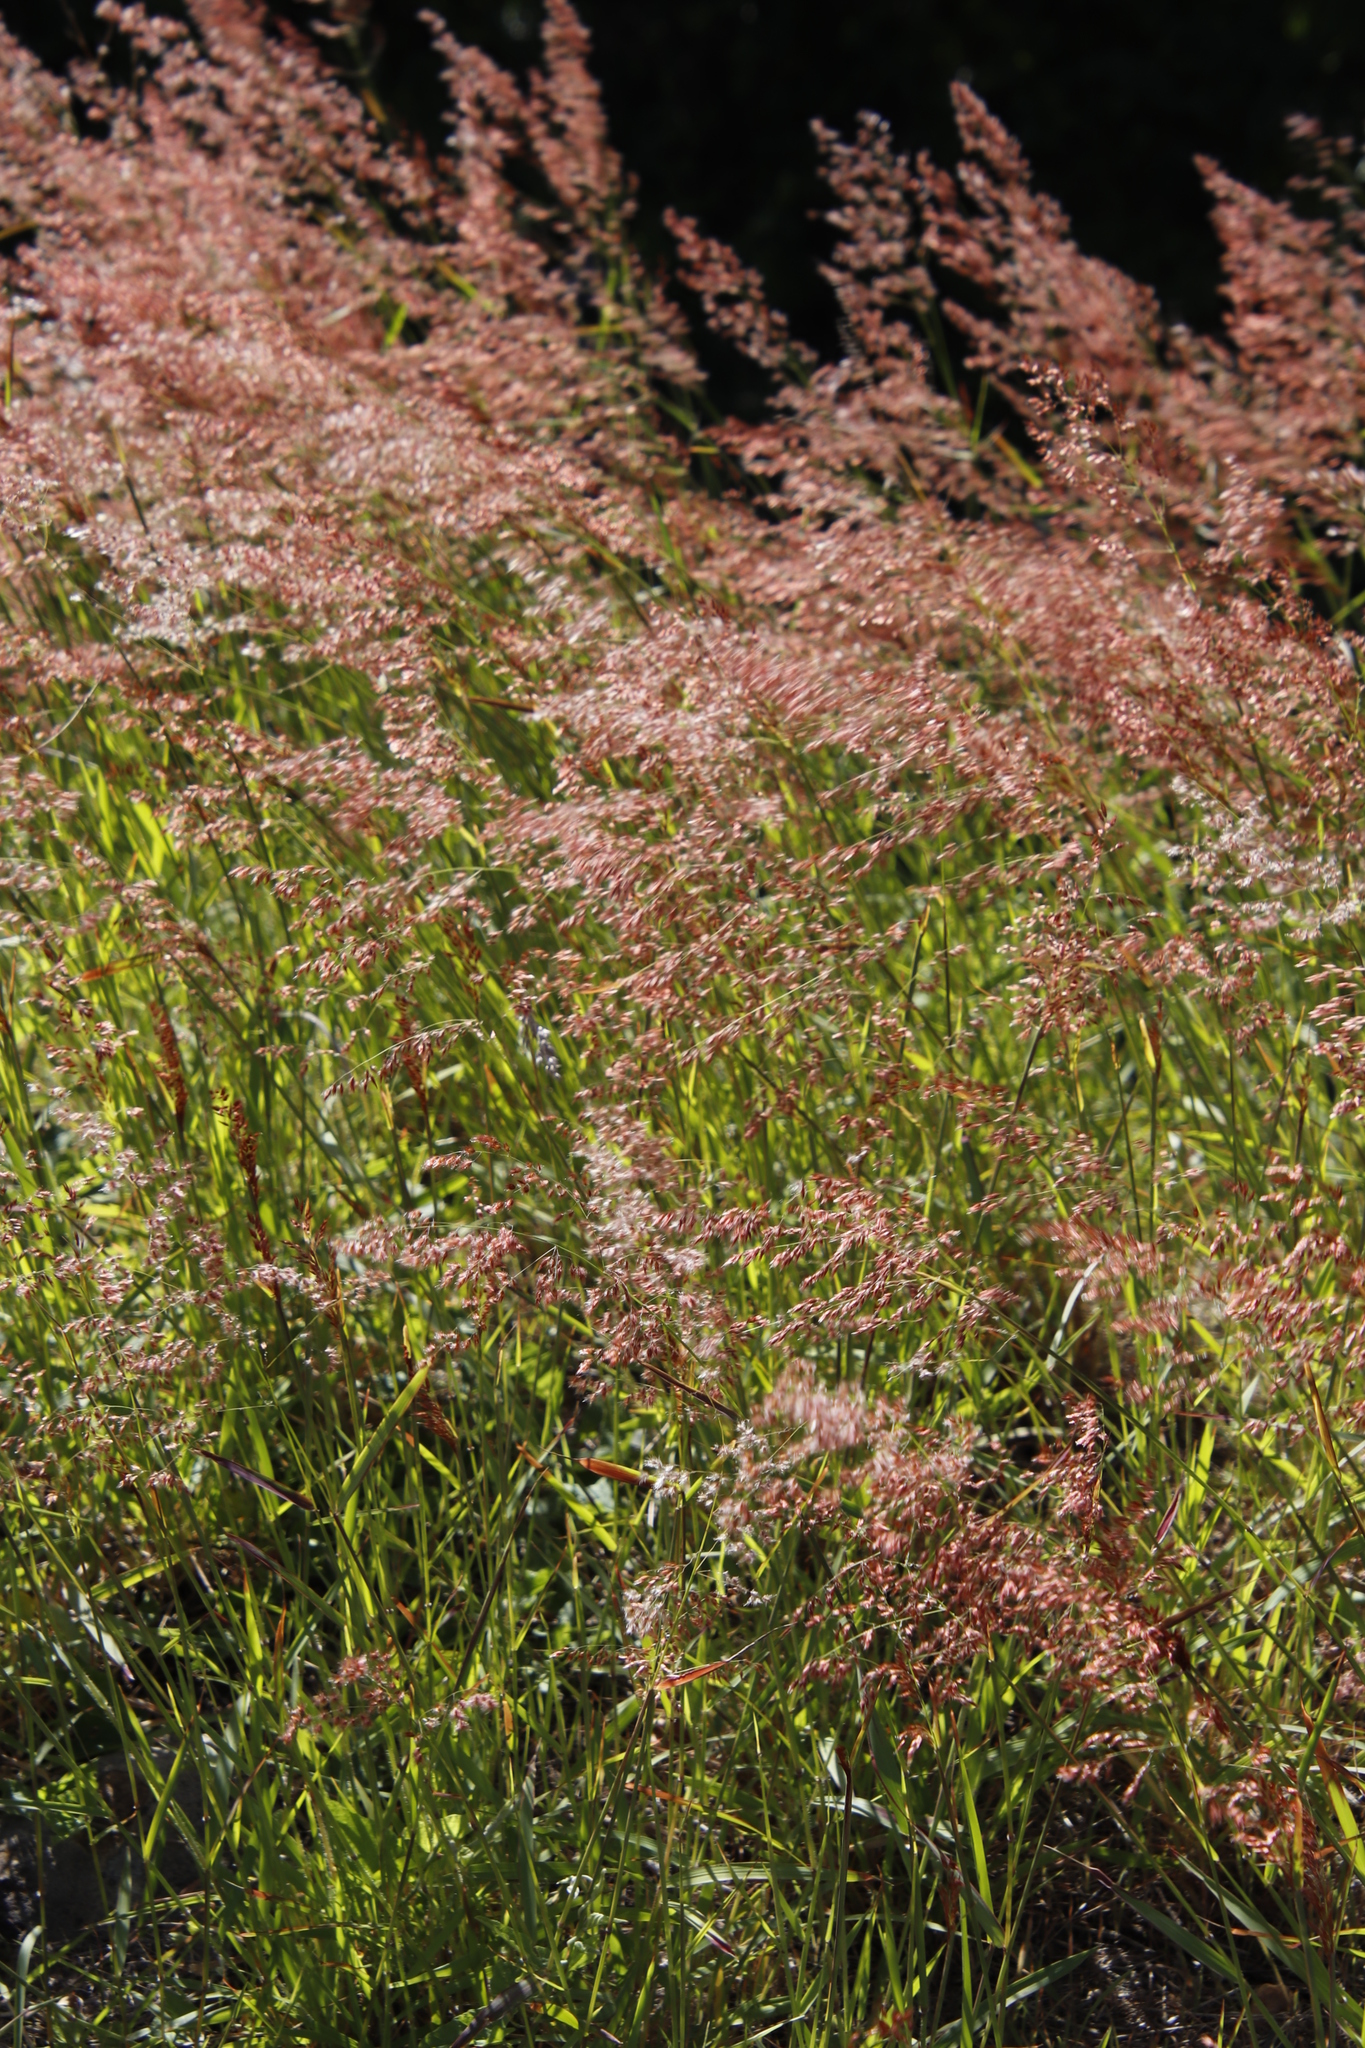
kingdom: Plantae
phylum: Tracheophyta
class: Liliopsida
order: Poales
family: Poaceae
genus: Melinis
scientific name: Melinis repens
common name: Rose natal grass
